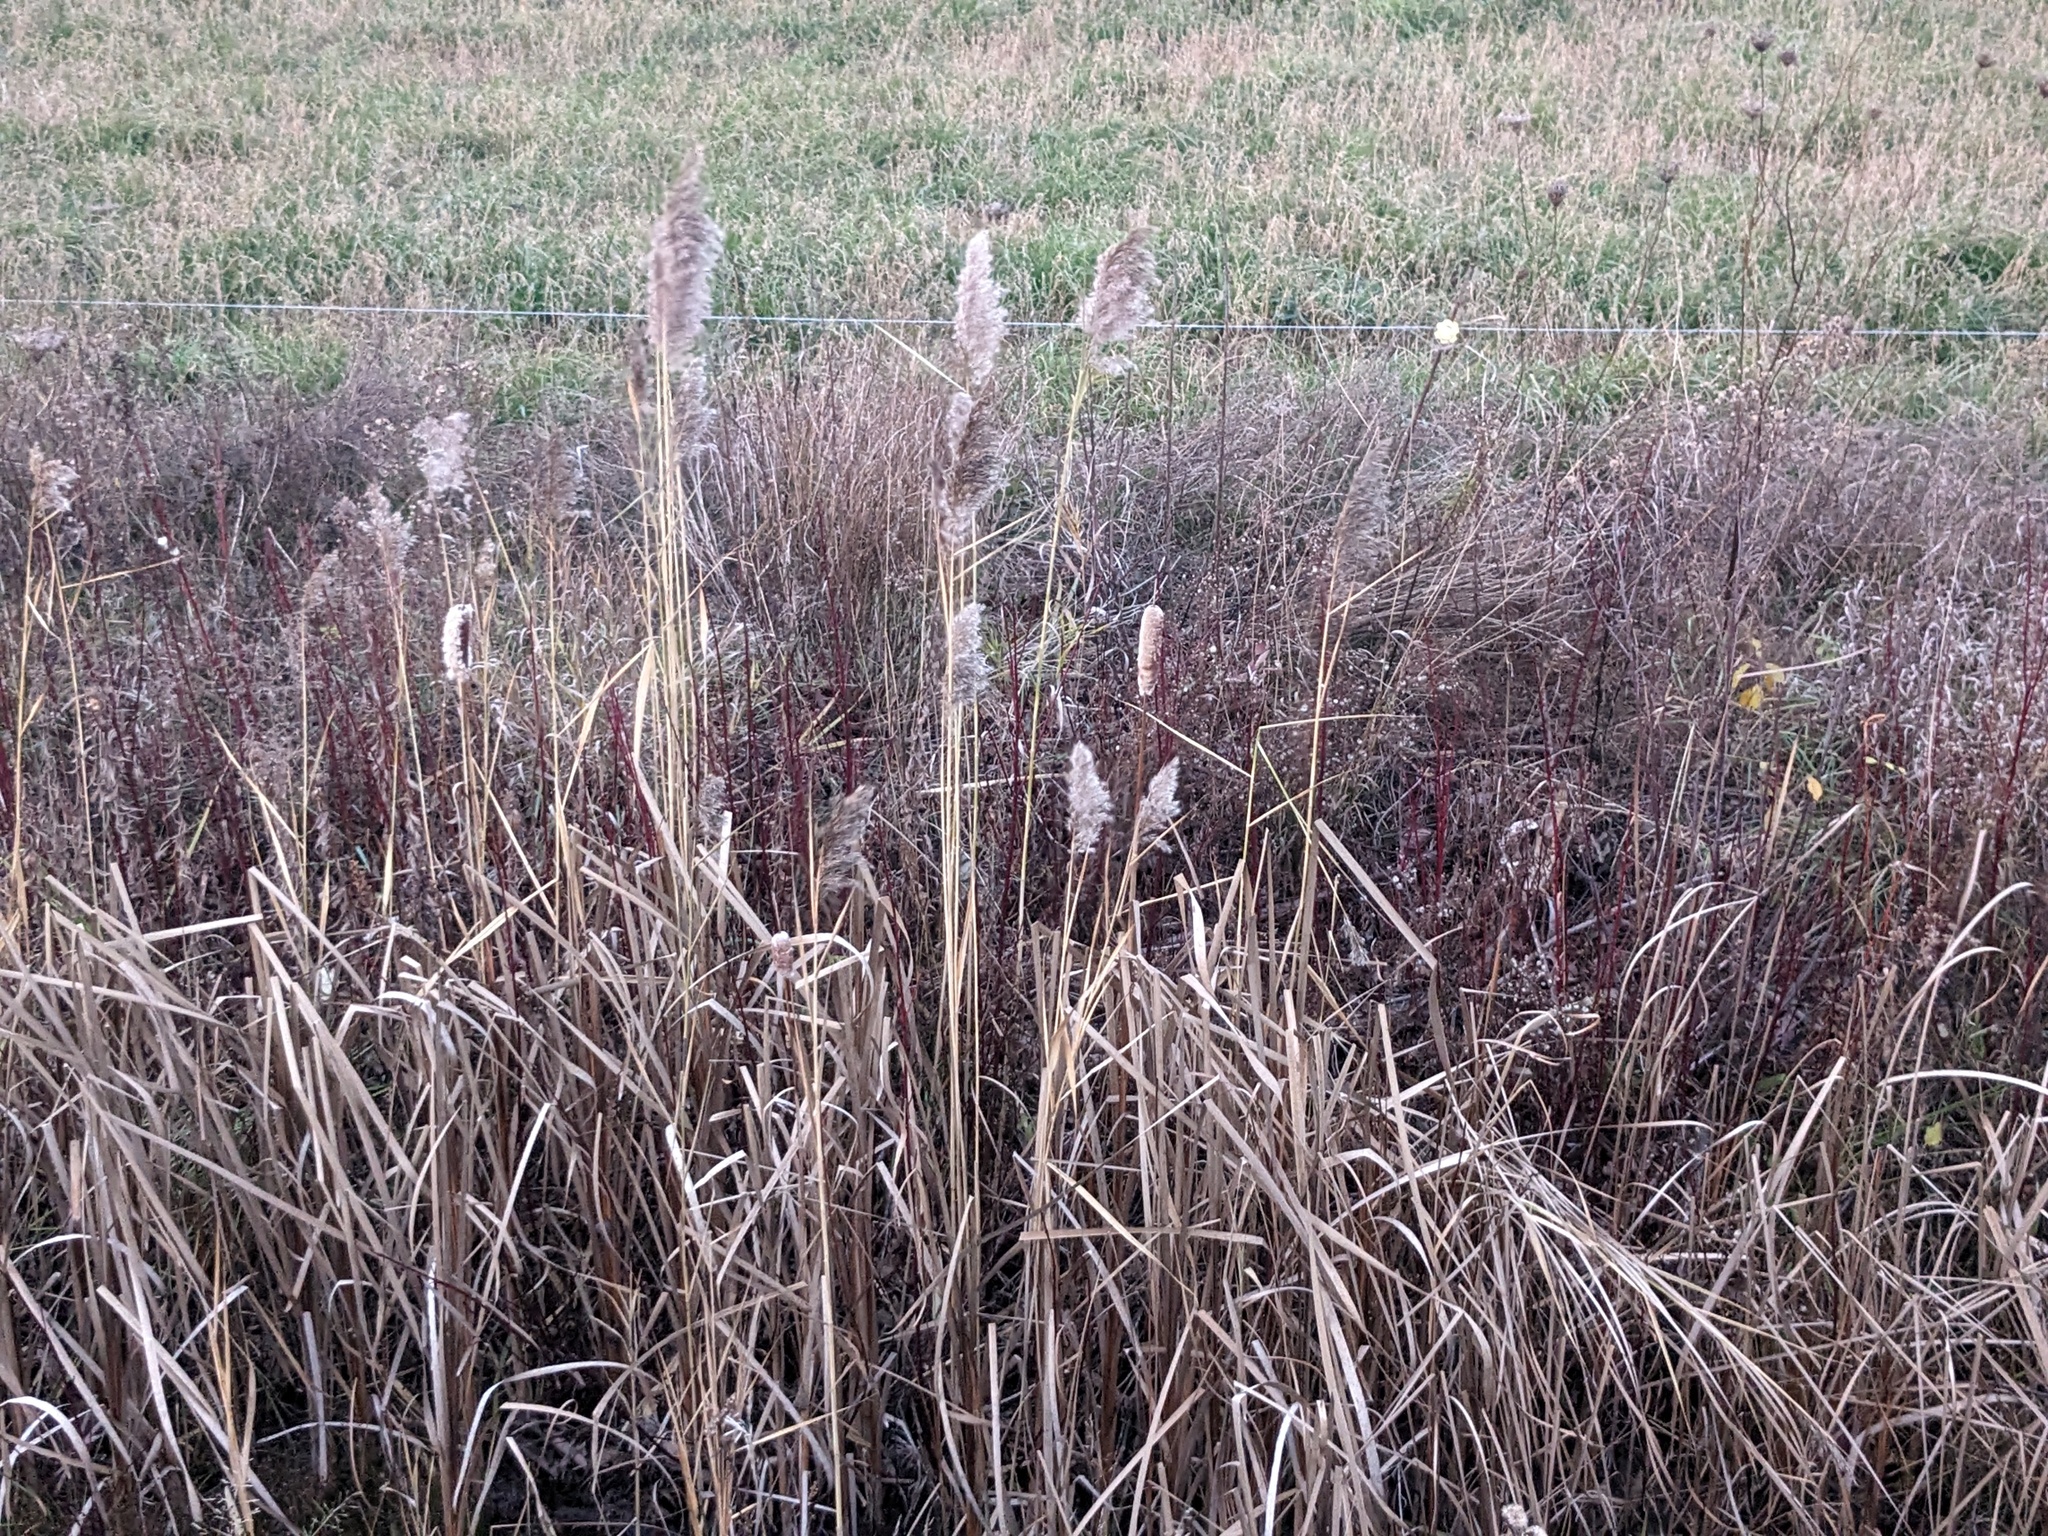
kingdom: Plantae
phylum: Tracheophyta
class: Liliopsida
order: Poales
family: Poaceae
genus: Phragmites
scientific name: Phragmites australis
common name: Common reed
